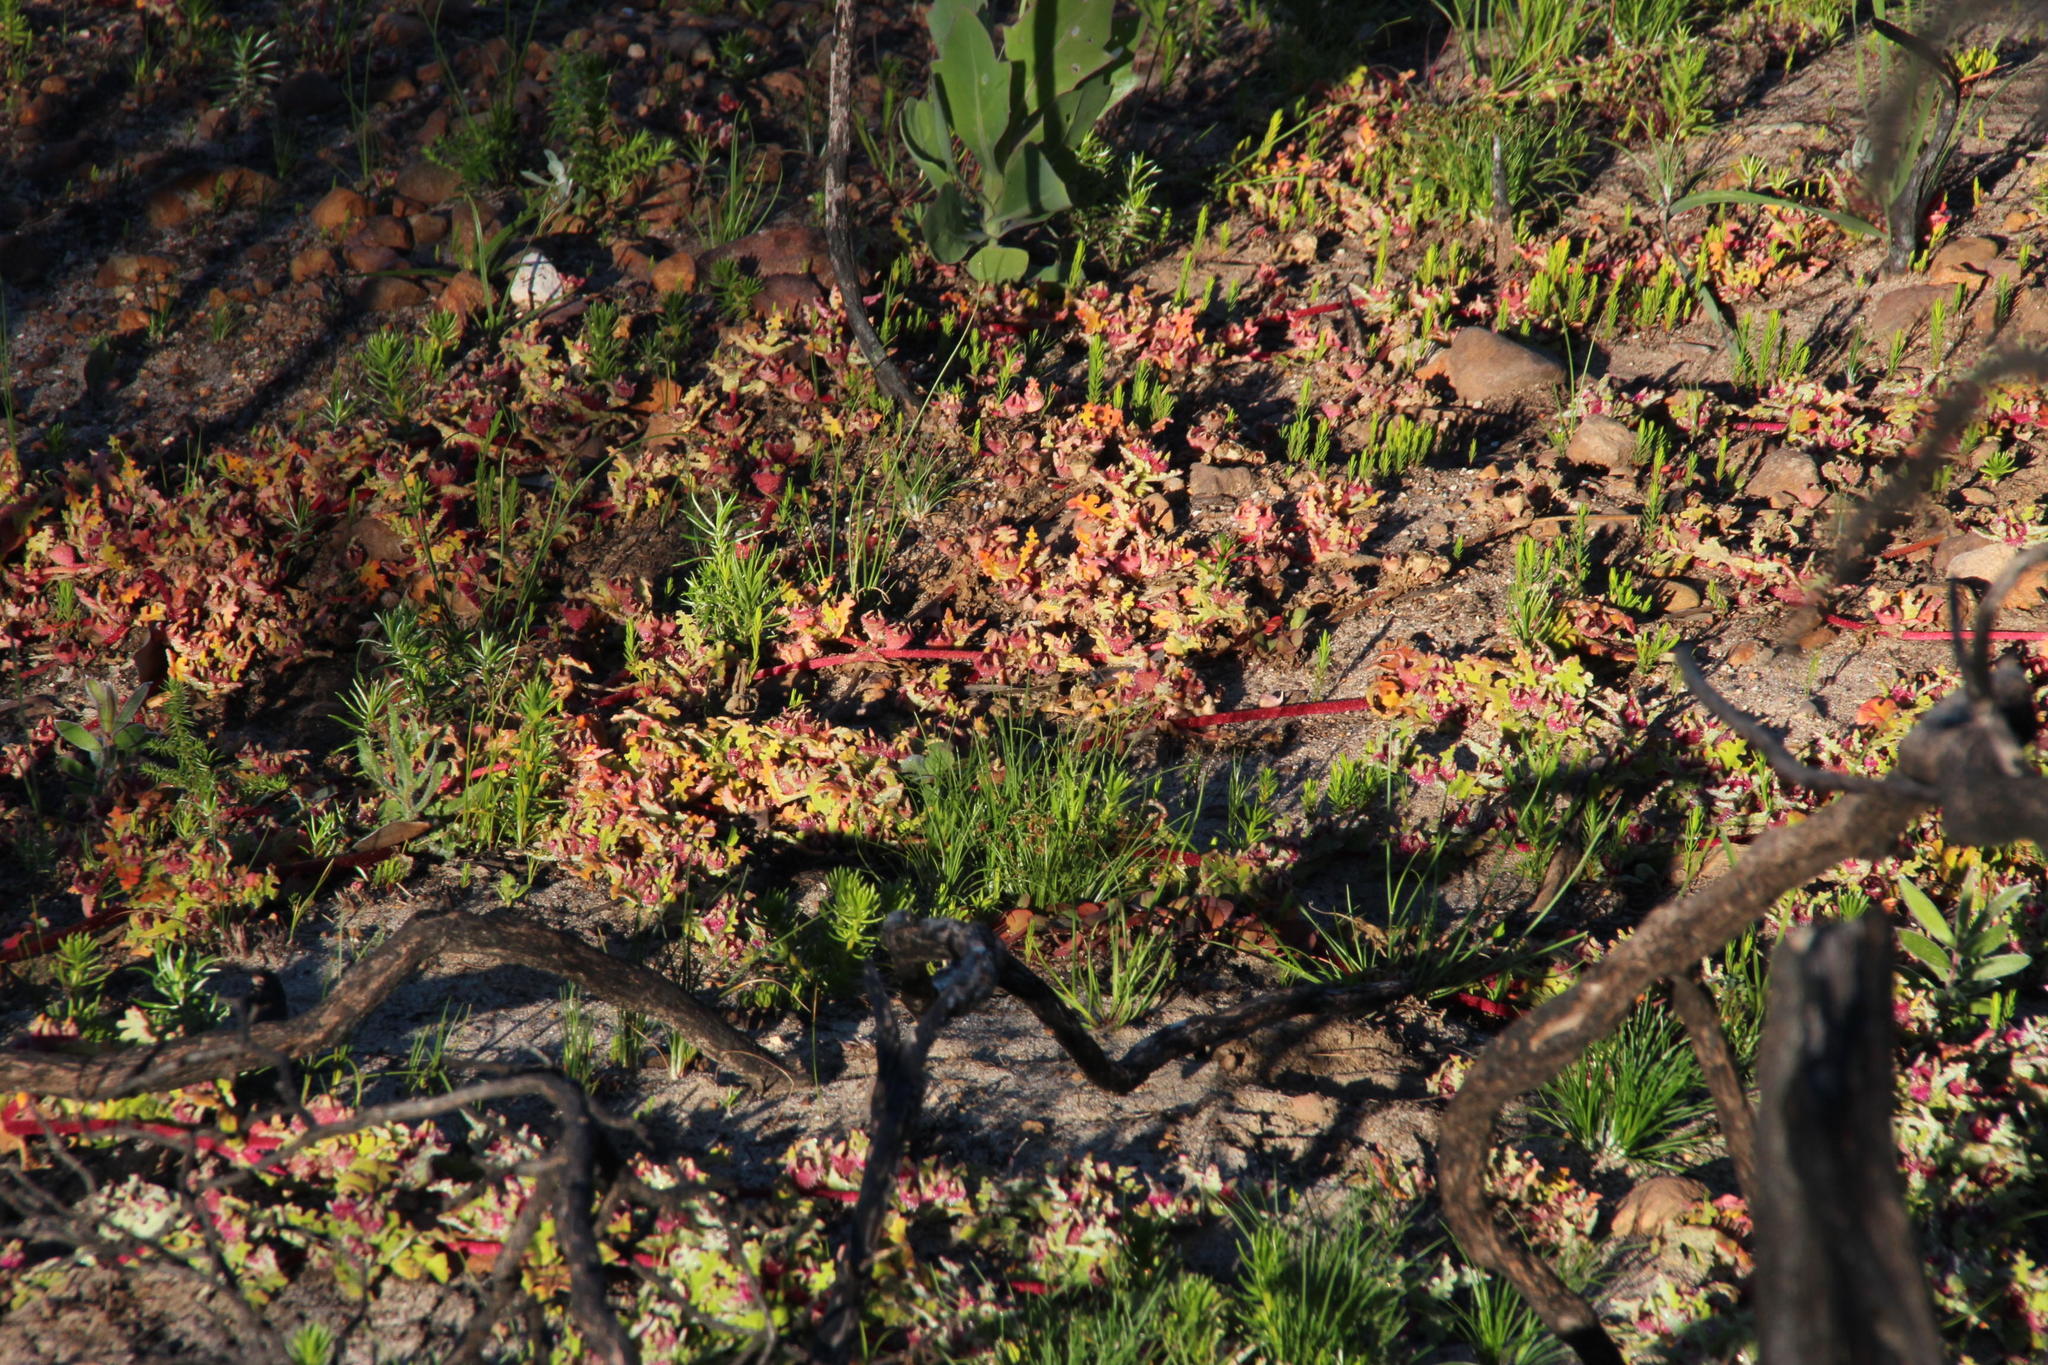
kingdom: Plantae
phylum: Tracheophyta
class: Magnoliopsida
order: Caryophyllales
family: Aizoaceae
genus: Cleretum
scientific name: Cleretum herrei
